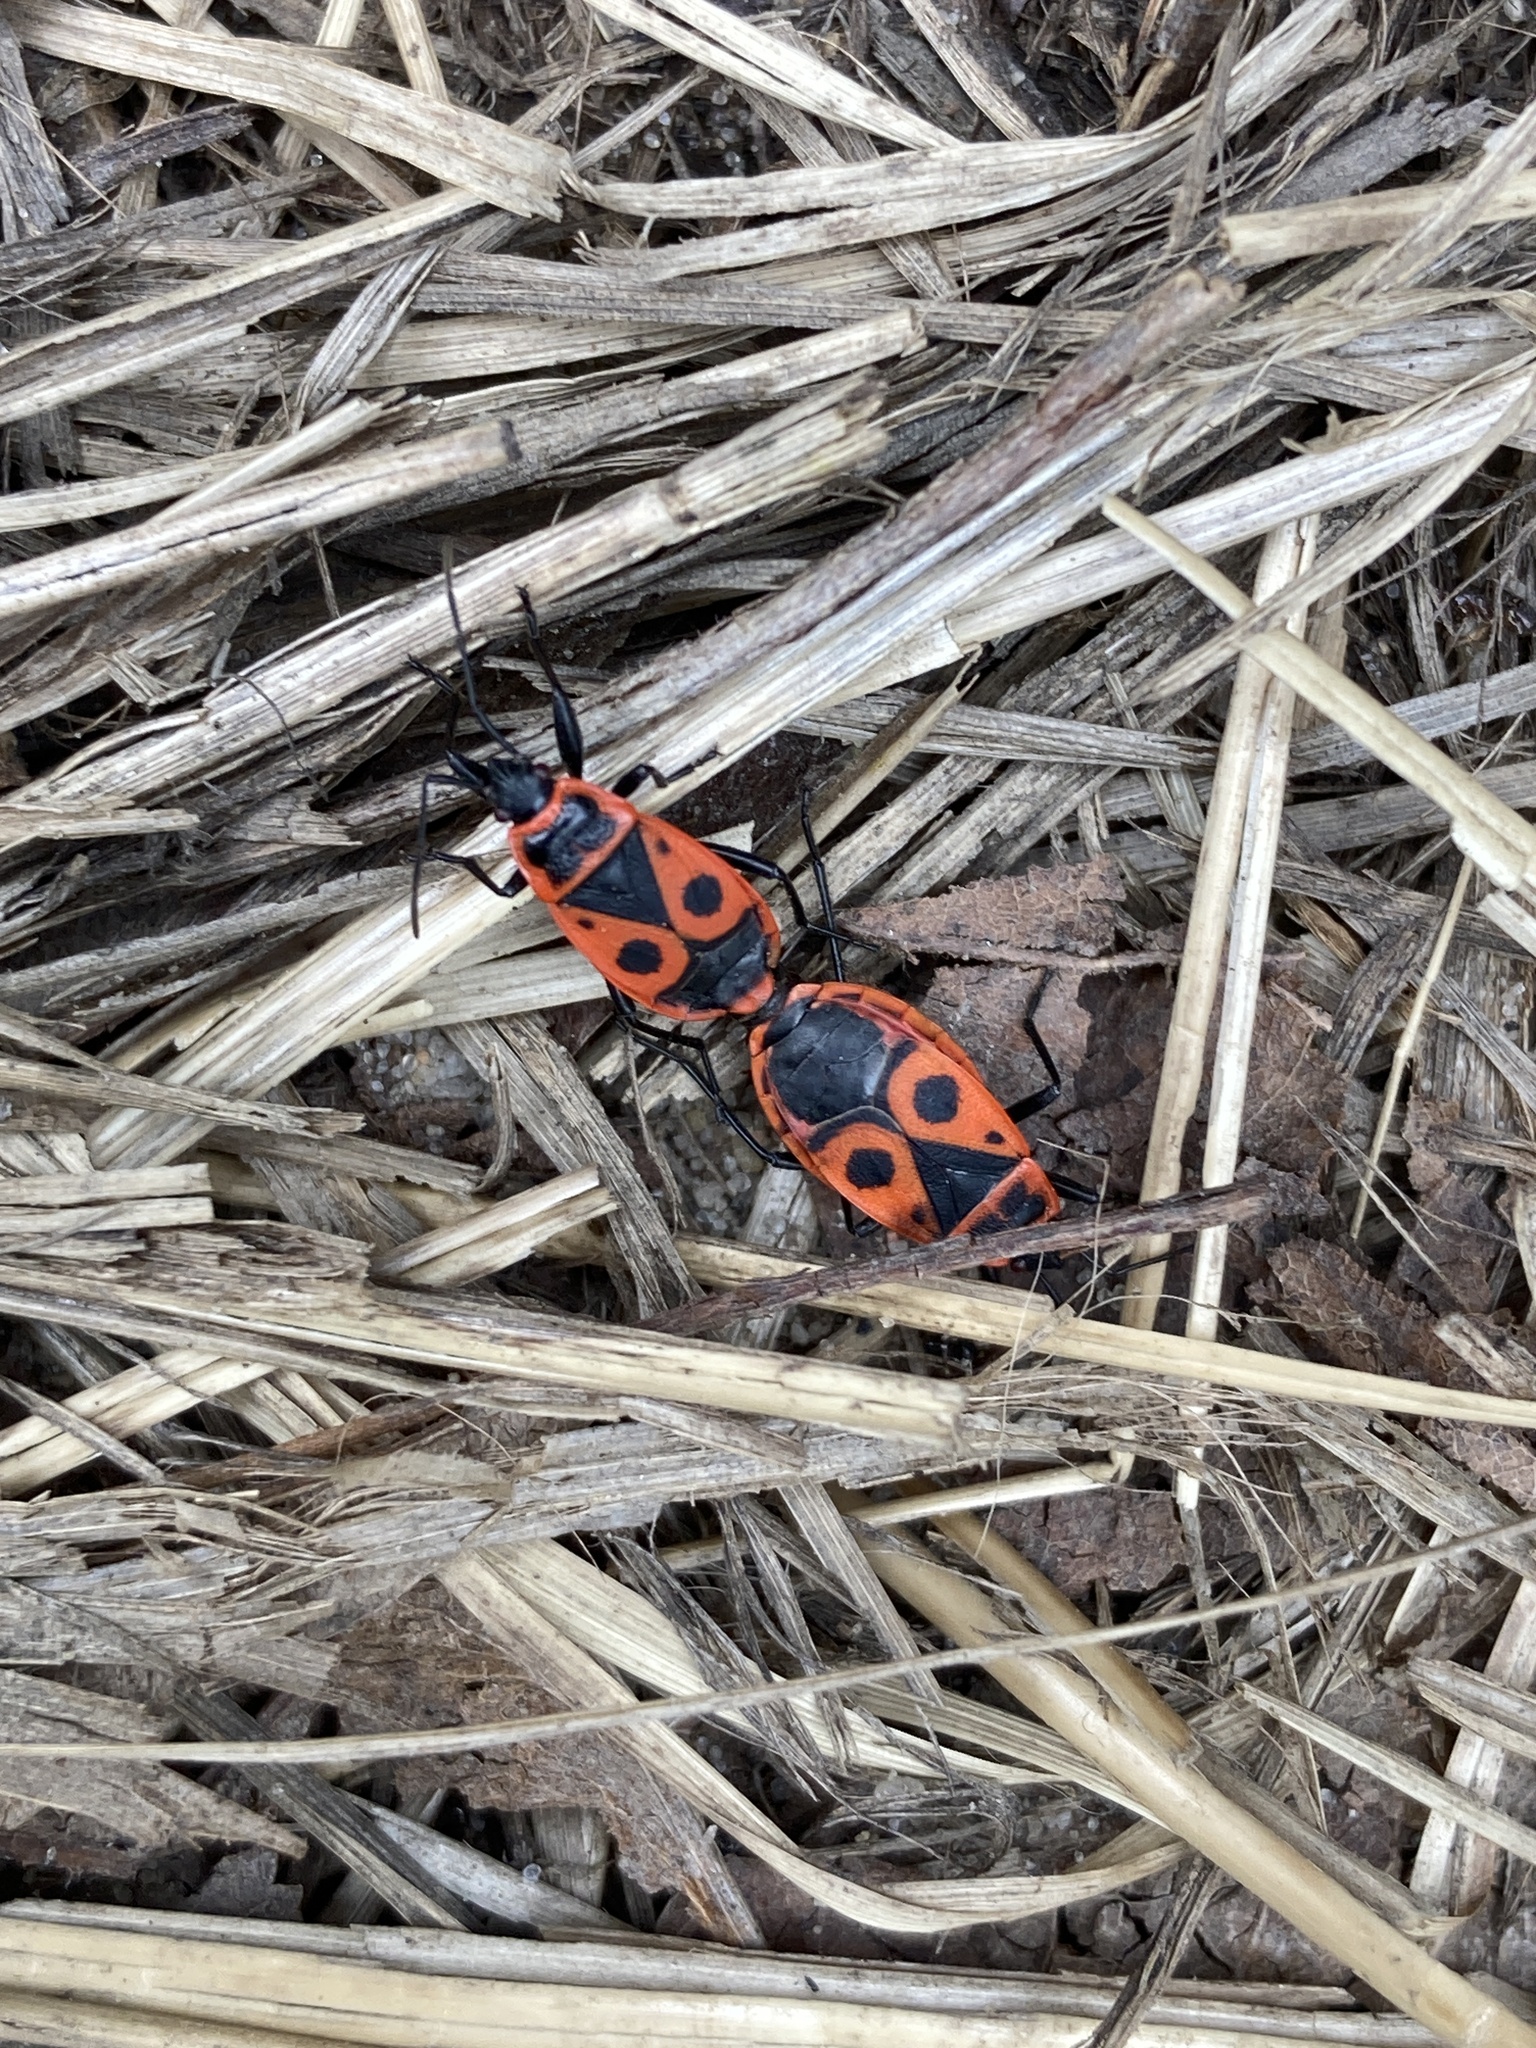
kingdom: Animalia
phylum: Arthropoda
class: Insecta
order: Hemiptera
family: Pyrrhocoridae
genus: Pyrrhocoris
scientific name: Pyrrhocoris apterus
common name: Firebug
